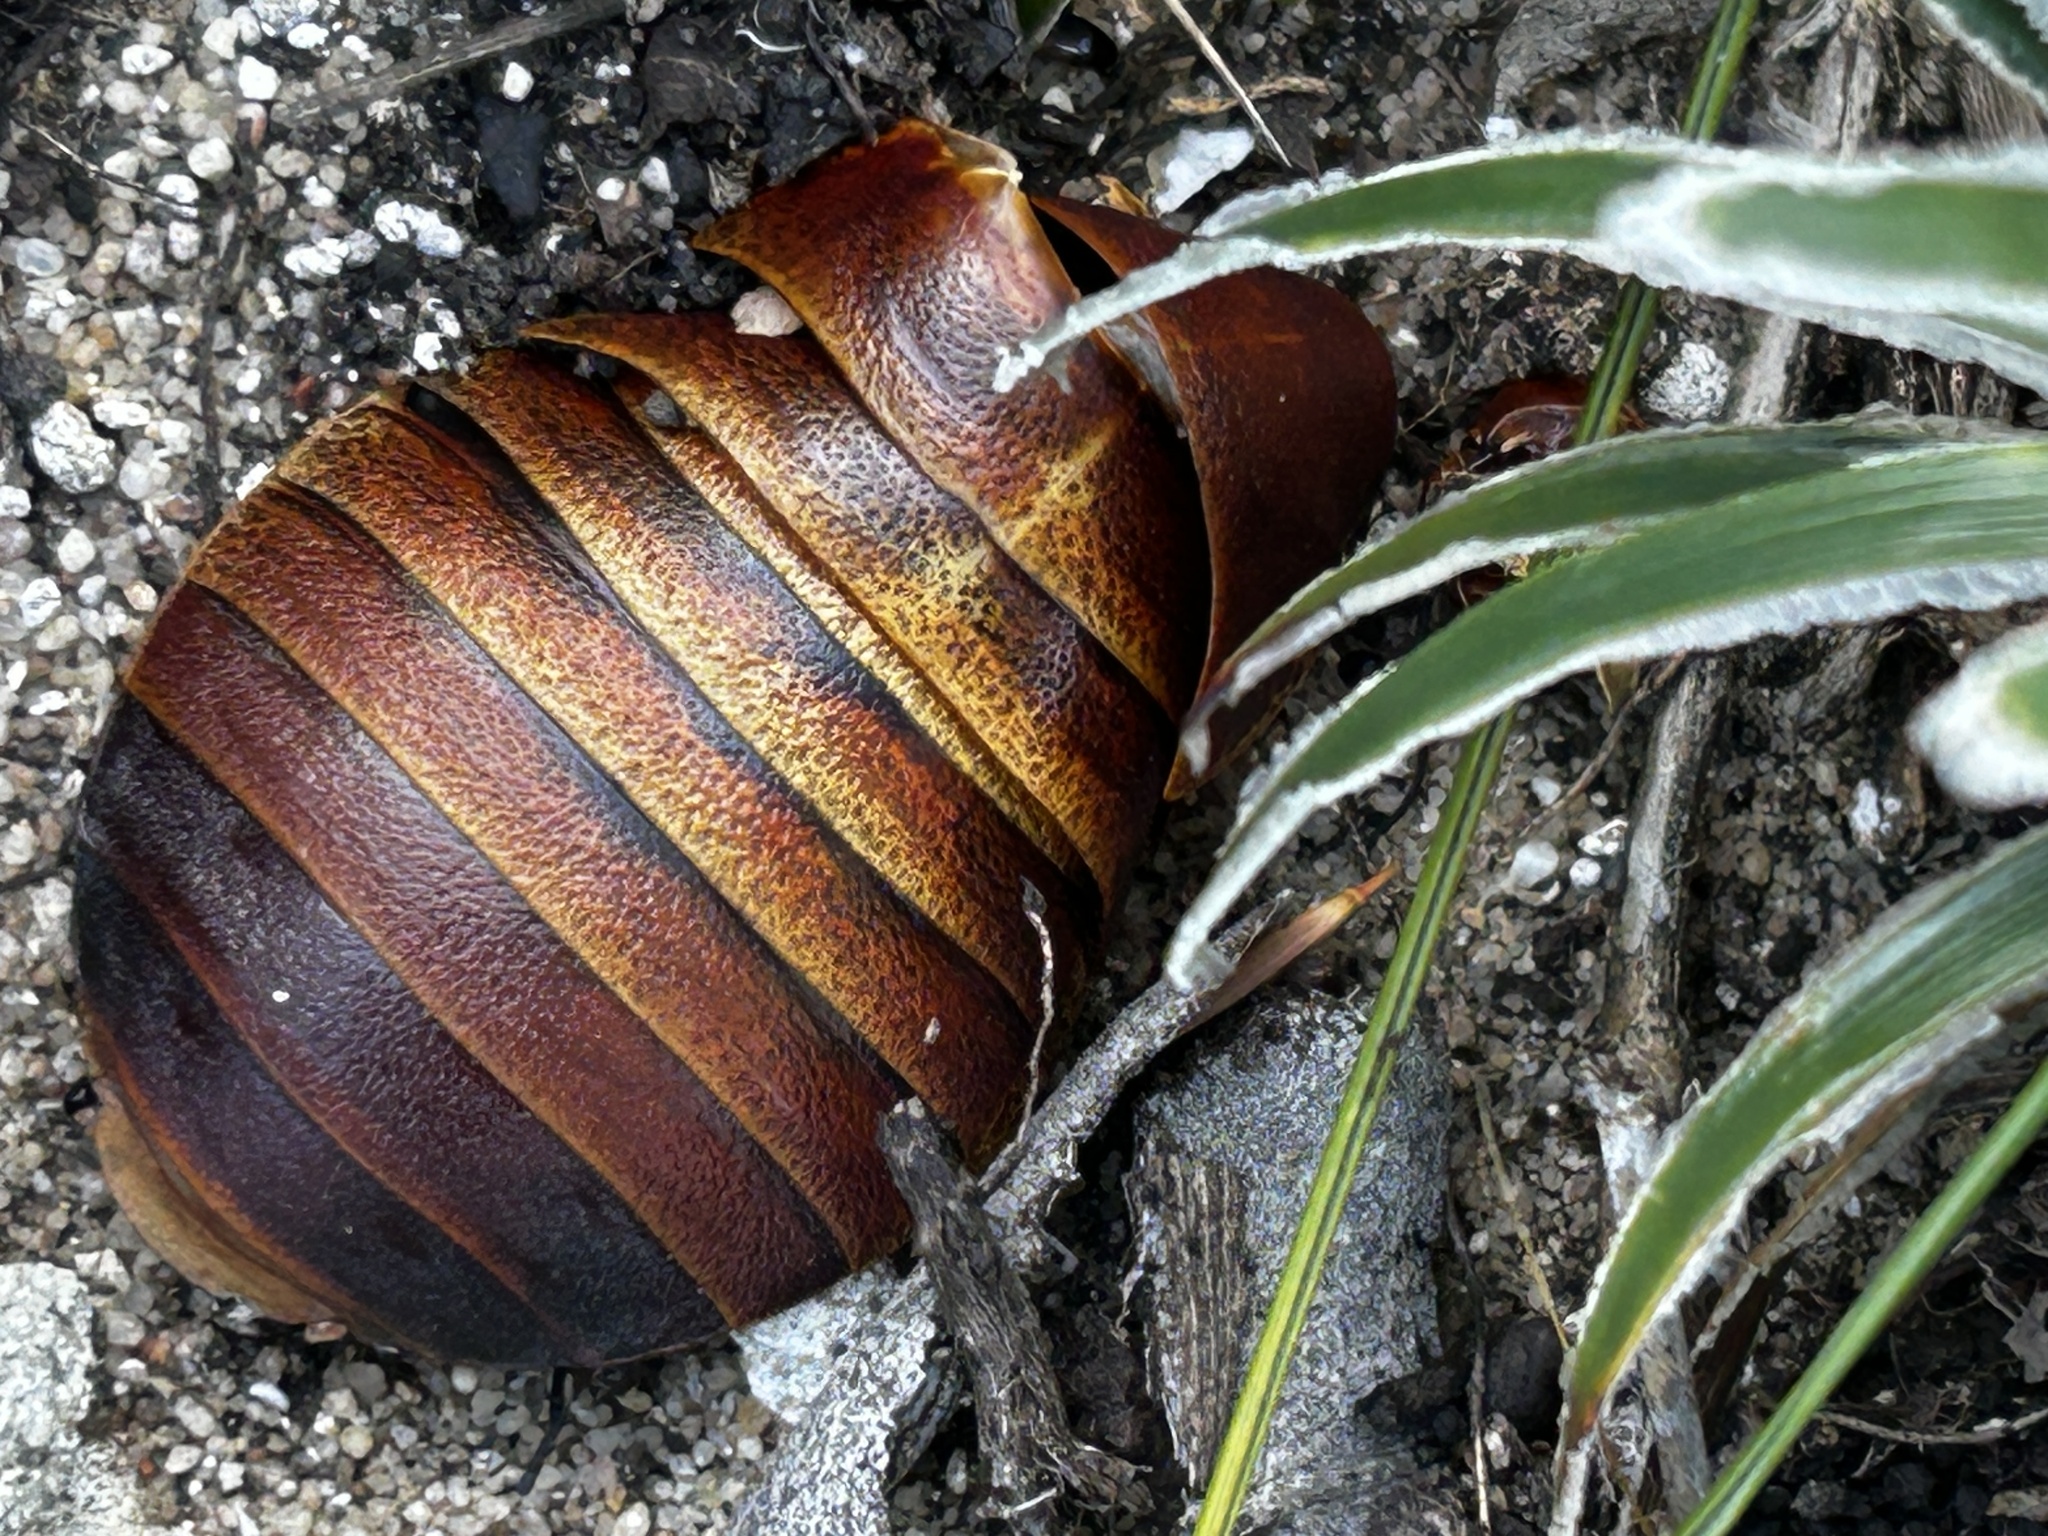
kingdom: Animalia
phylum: Arthropoda
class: Insecta
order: Blattodea
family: Blaberidae
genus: Aptera
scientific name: Aptera fusca
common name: Cape mountain cockroach
